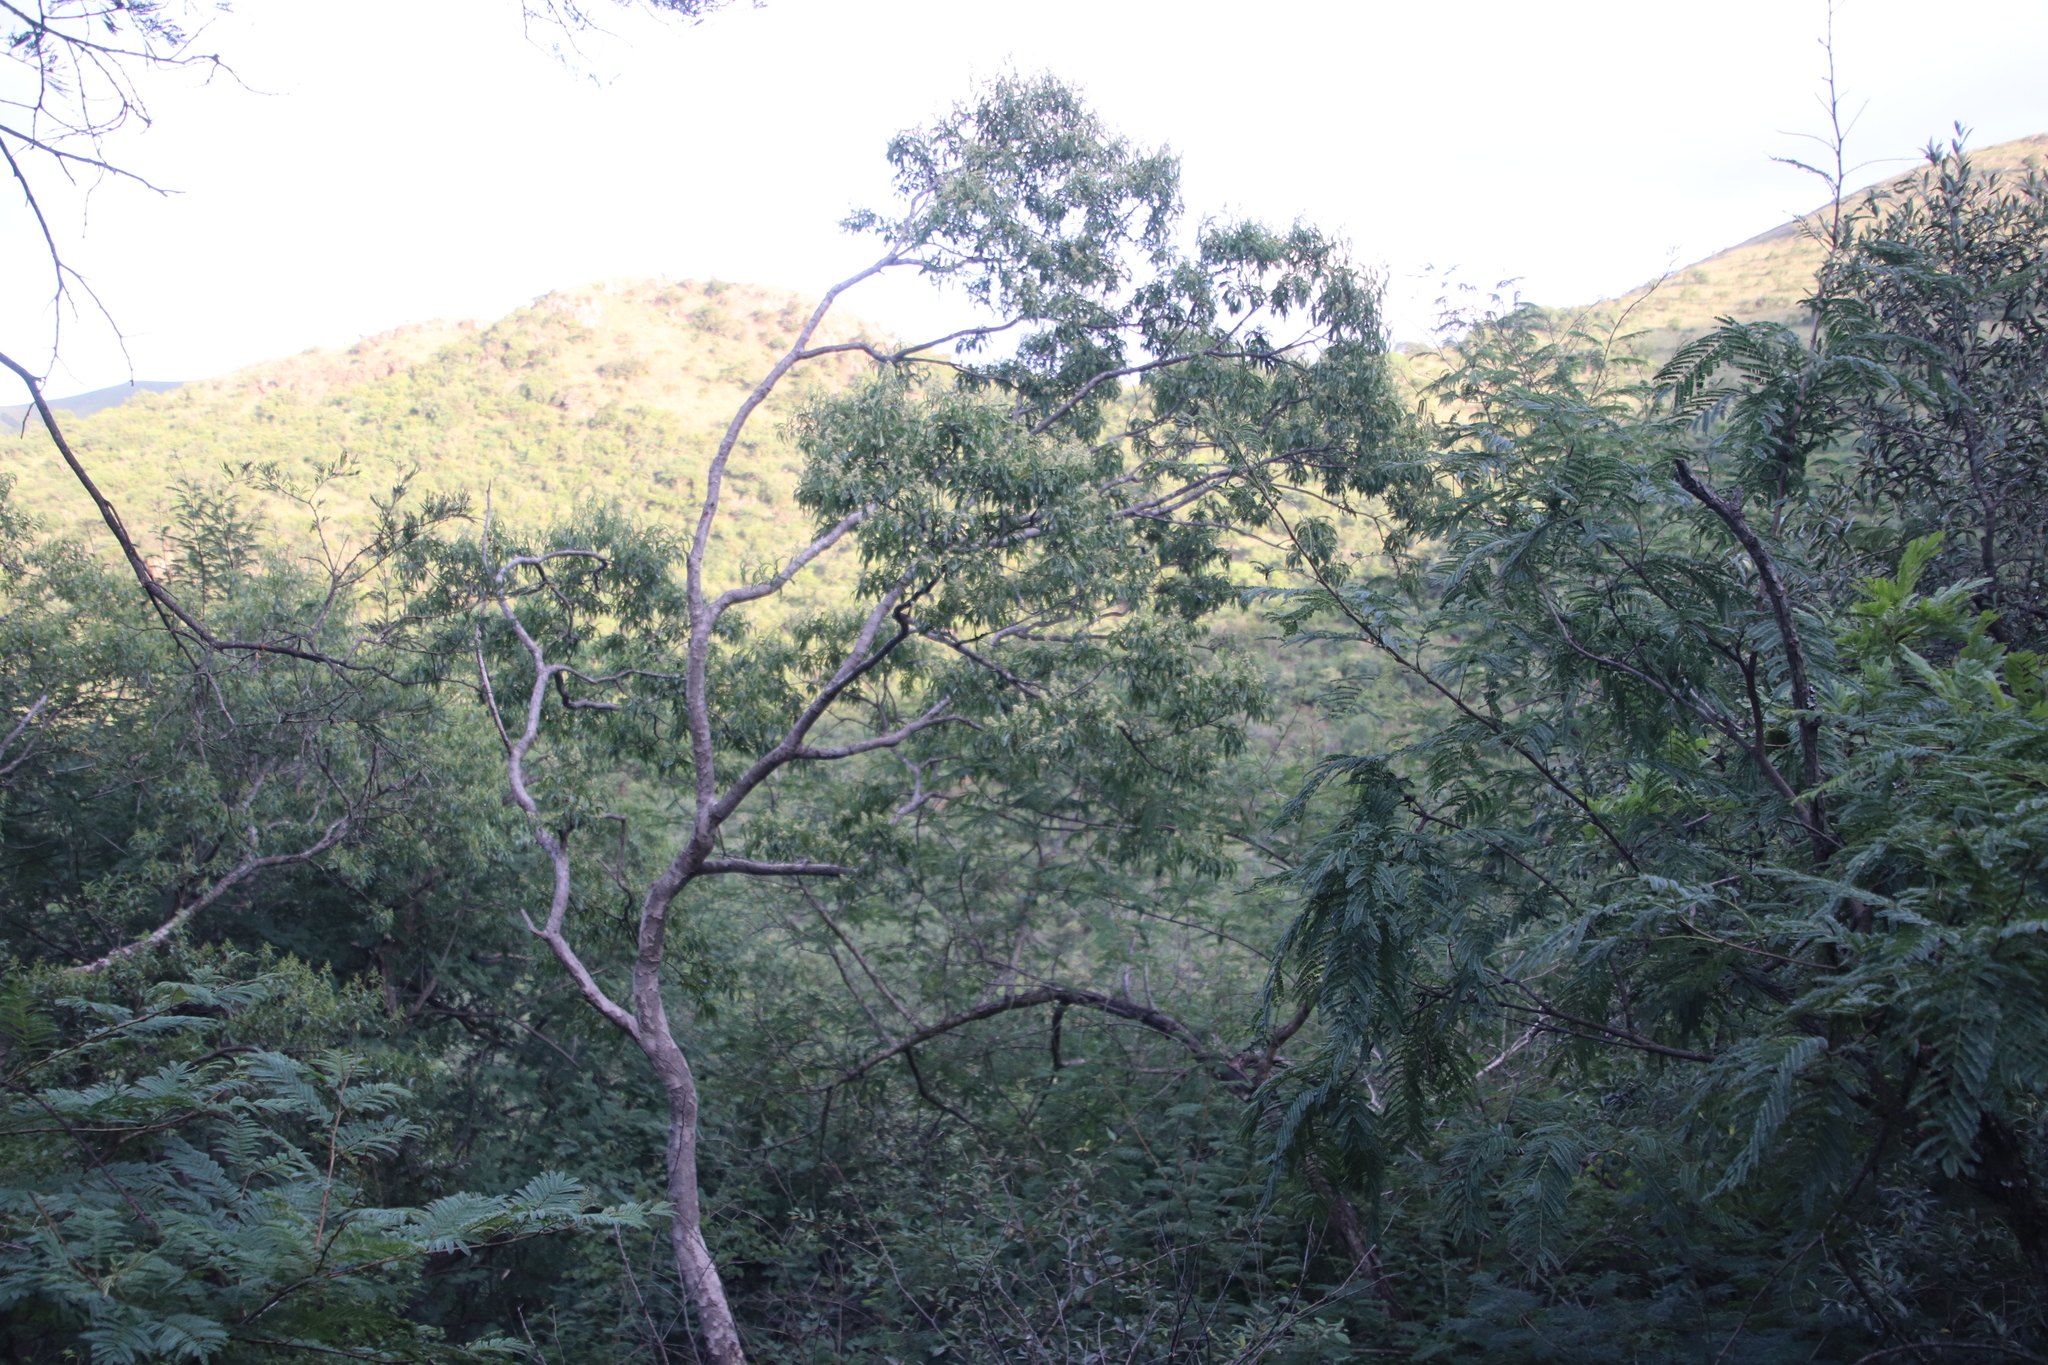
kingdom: Plantae
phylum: Tracheophyta
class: Magnoliopsida
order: Myrtales
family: Myrtaceae
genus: Heteropyxis
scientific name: Heteropyxis natalensis
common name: Lavender tree
